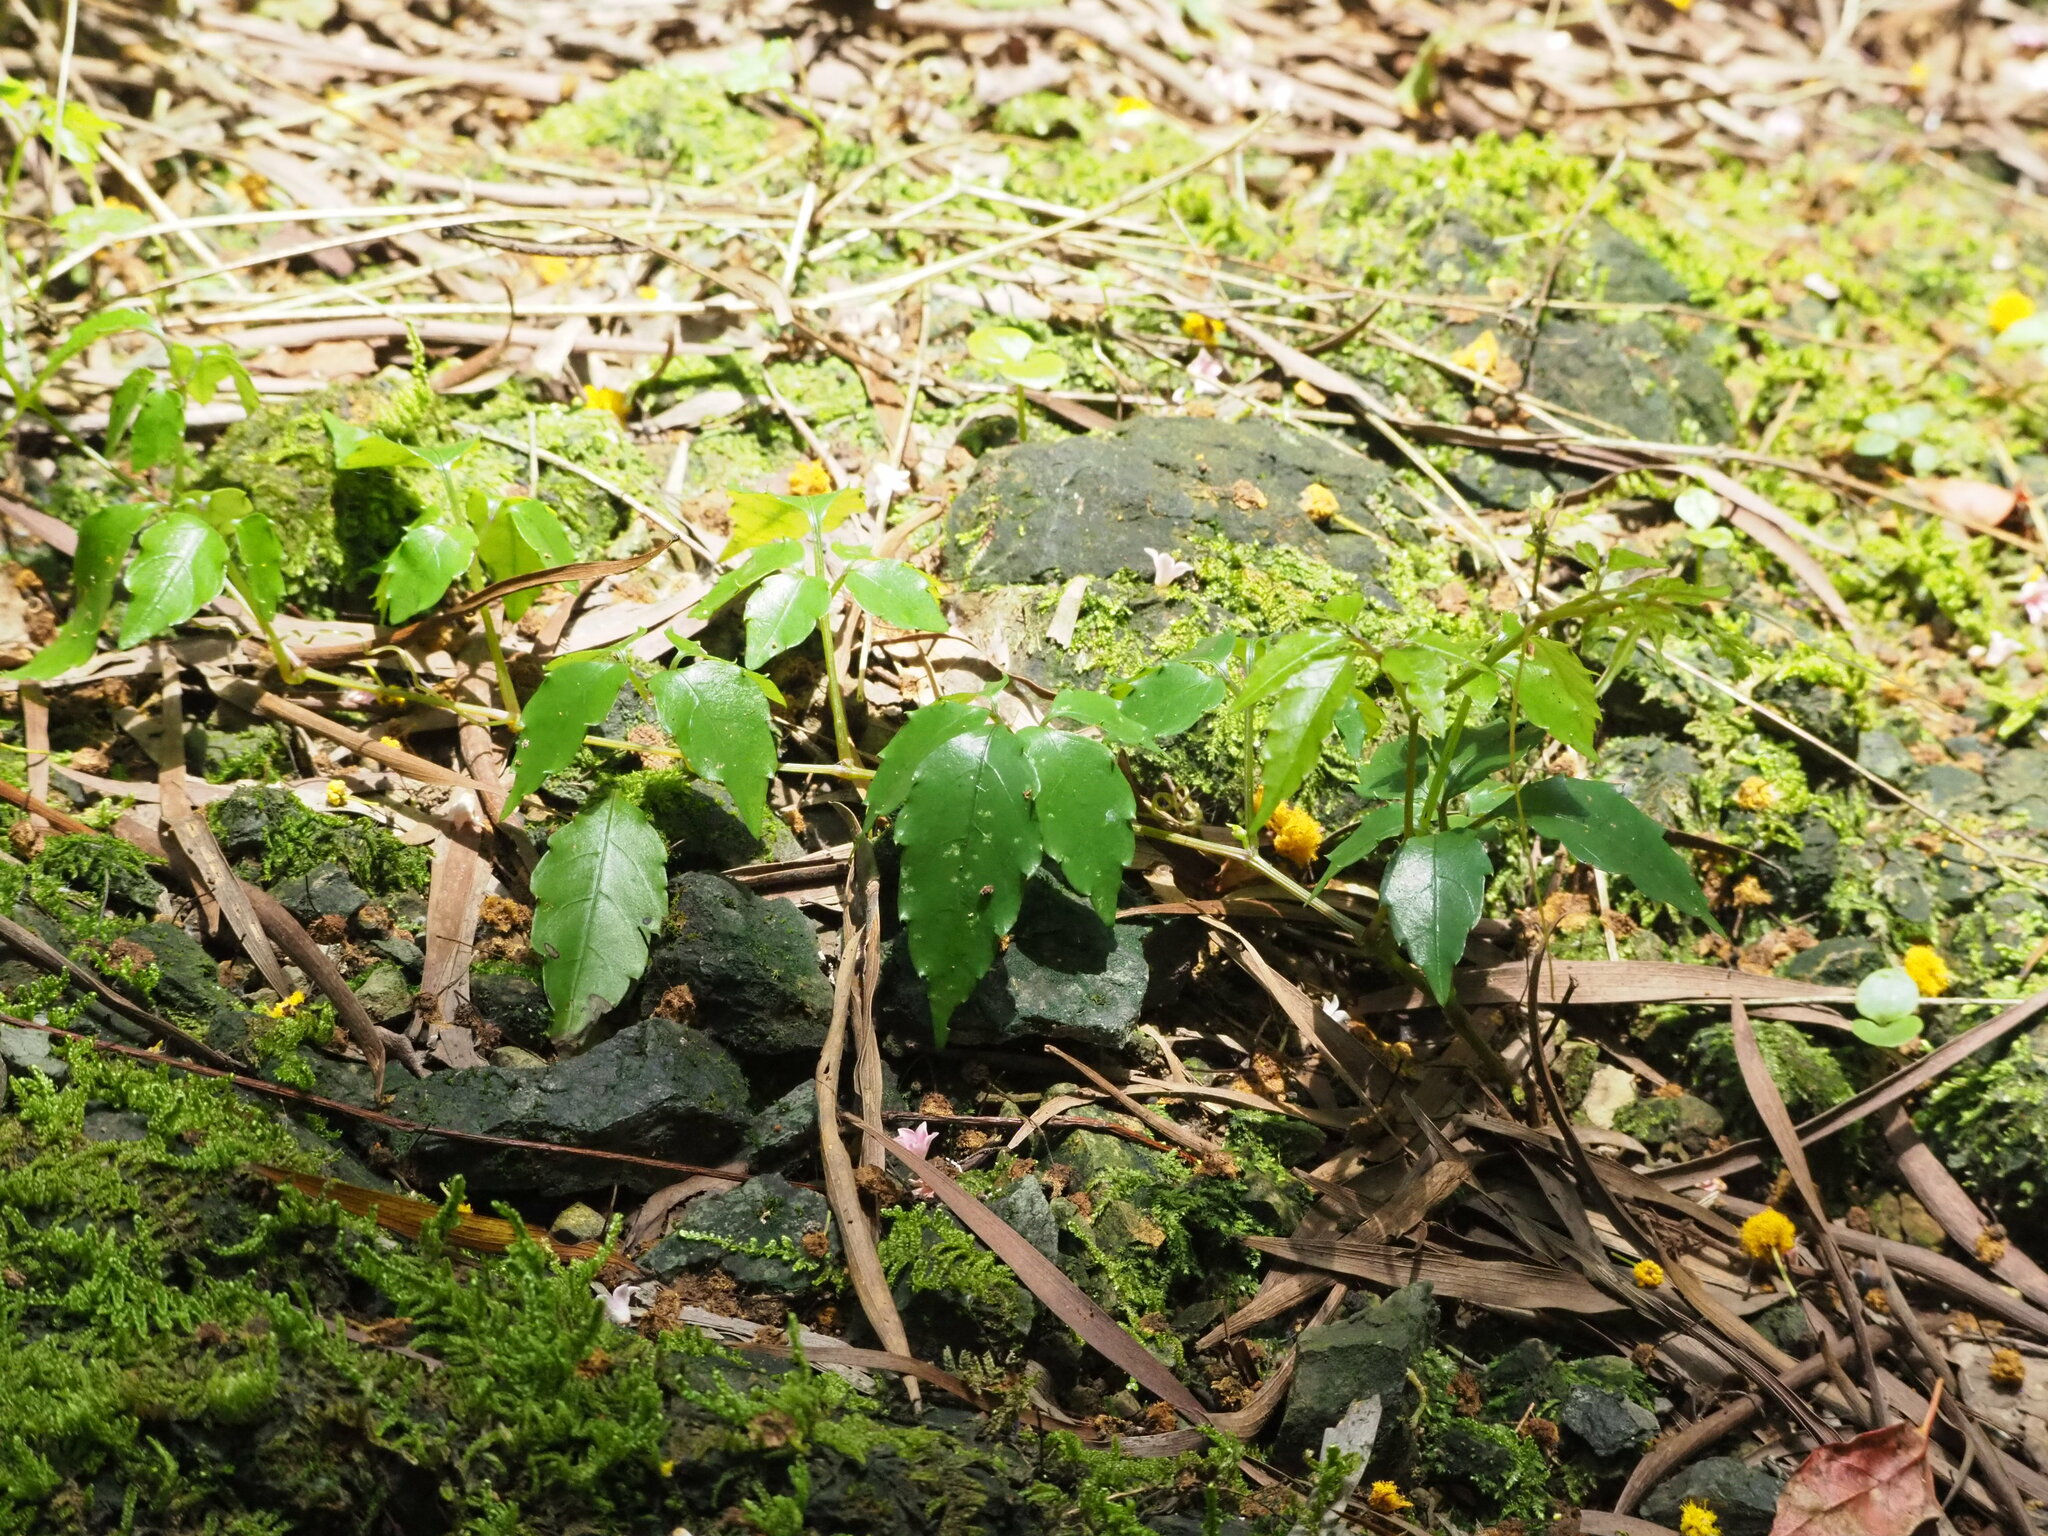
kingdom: Plantae
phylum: Tracheophyta
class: Magnoliopsida
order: Vitales
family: Vitaceae
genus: Causonis
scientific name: Causonis corniculata
